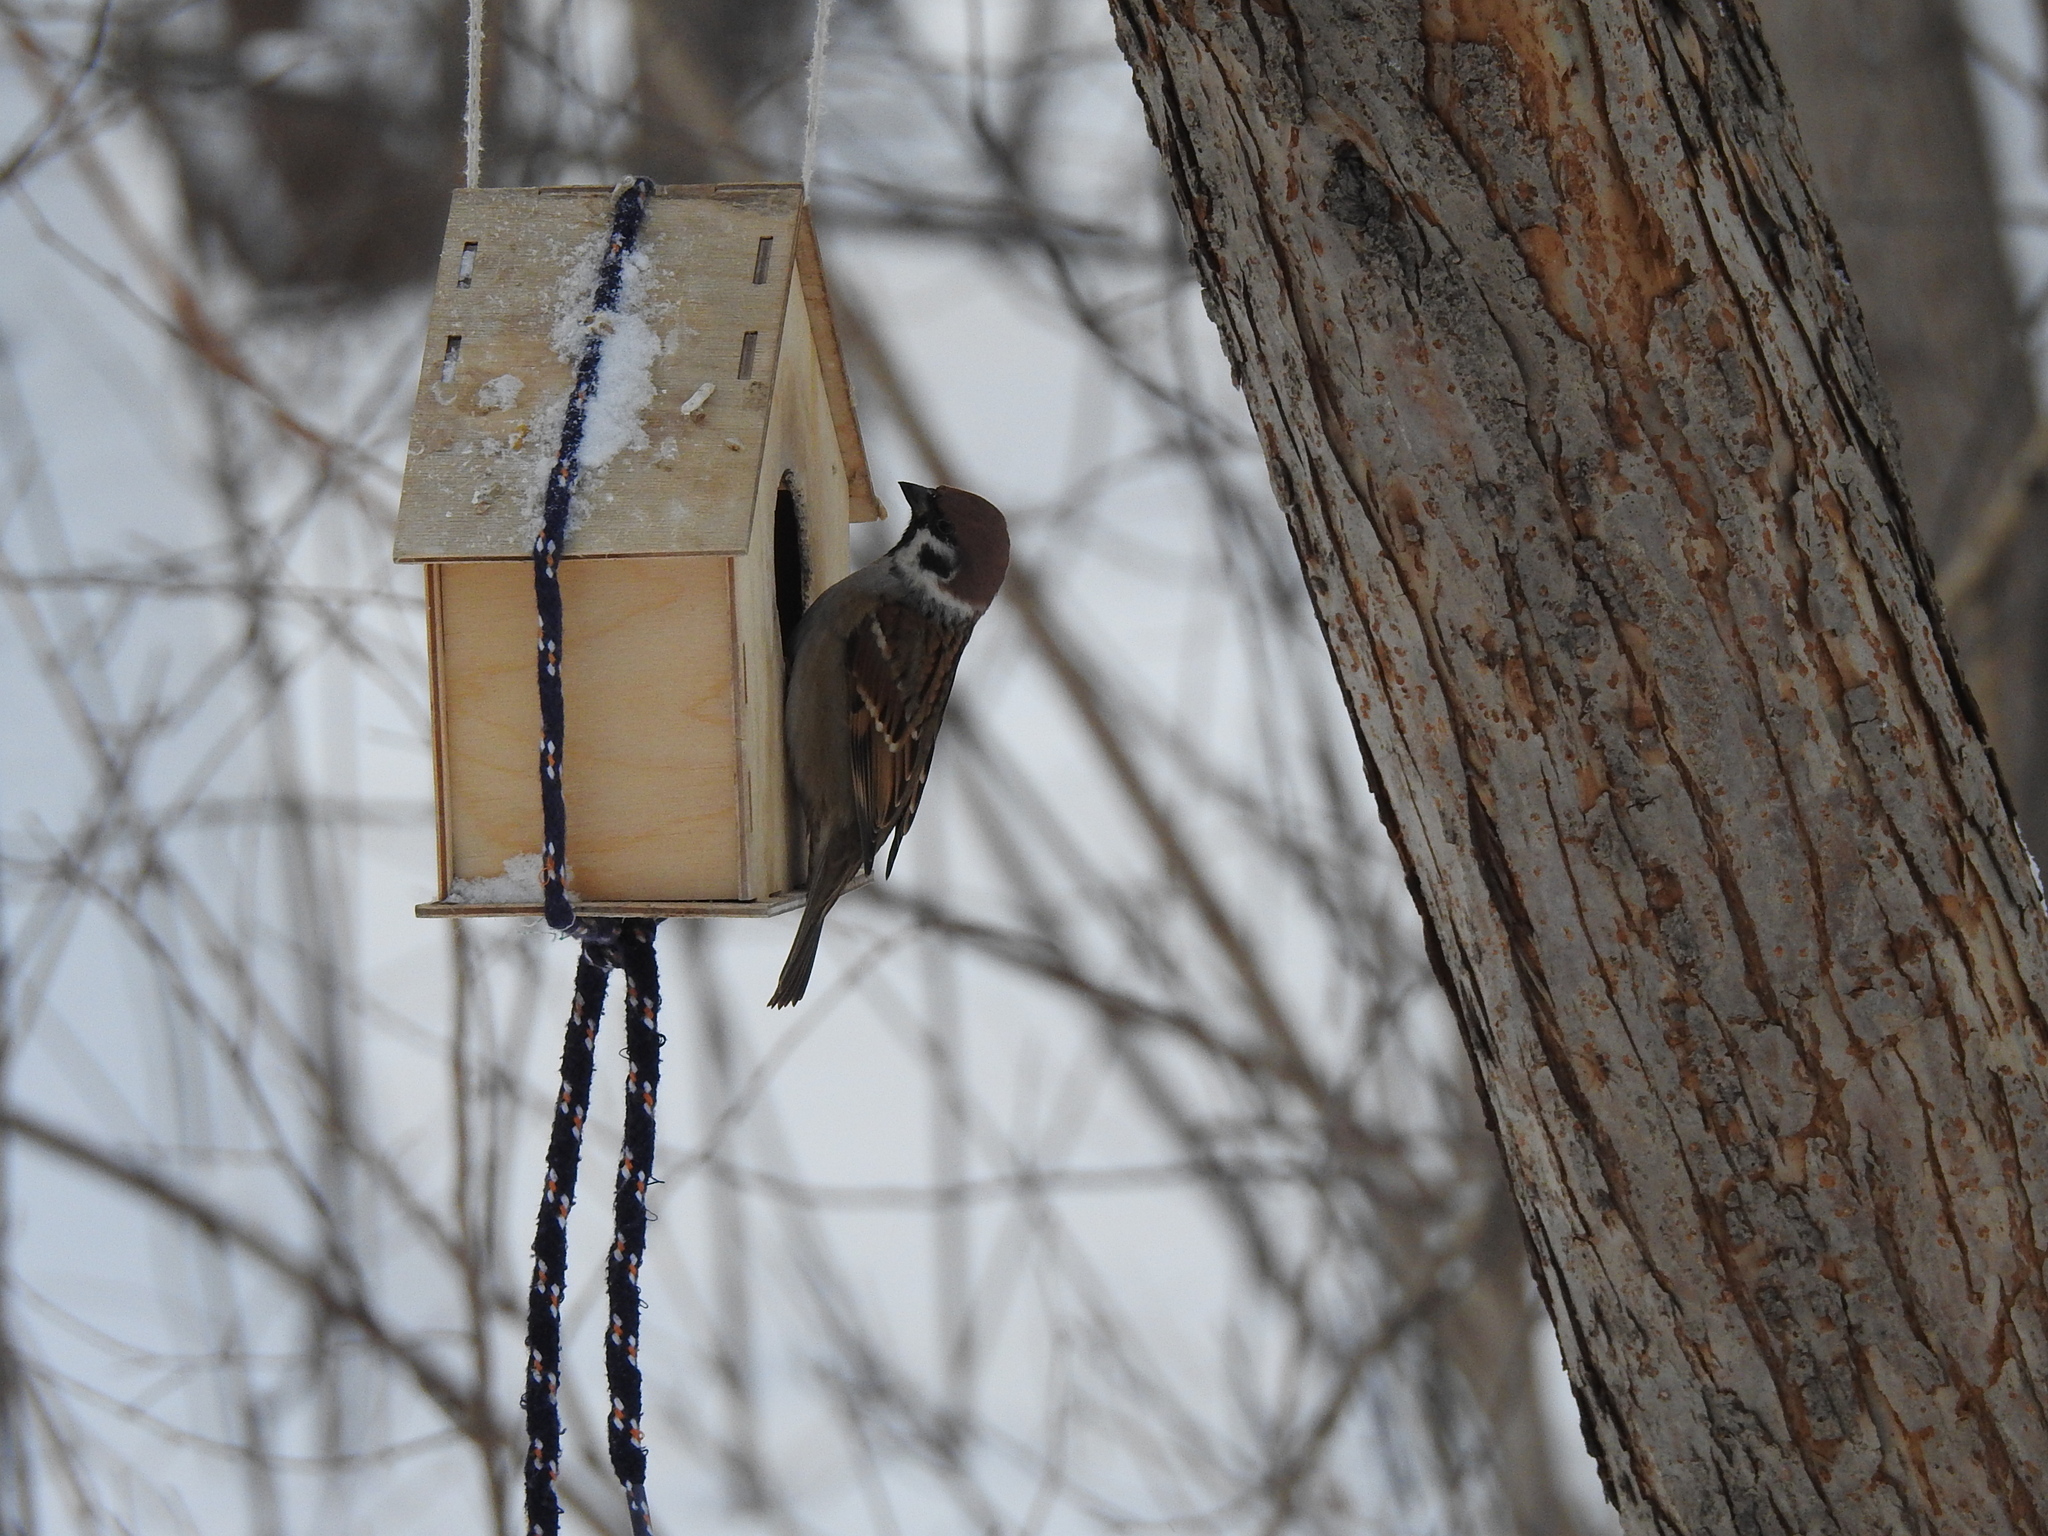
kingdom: Animalia
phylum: Chordata
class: Aves
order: Passeriformes
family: Passeridae
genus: Passer
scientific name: Passer montanus
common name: Eurasian tree sparrow
